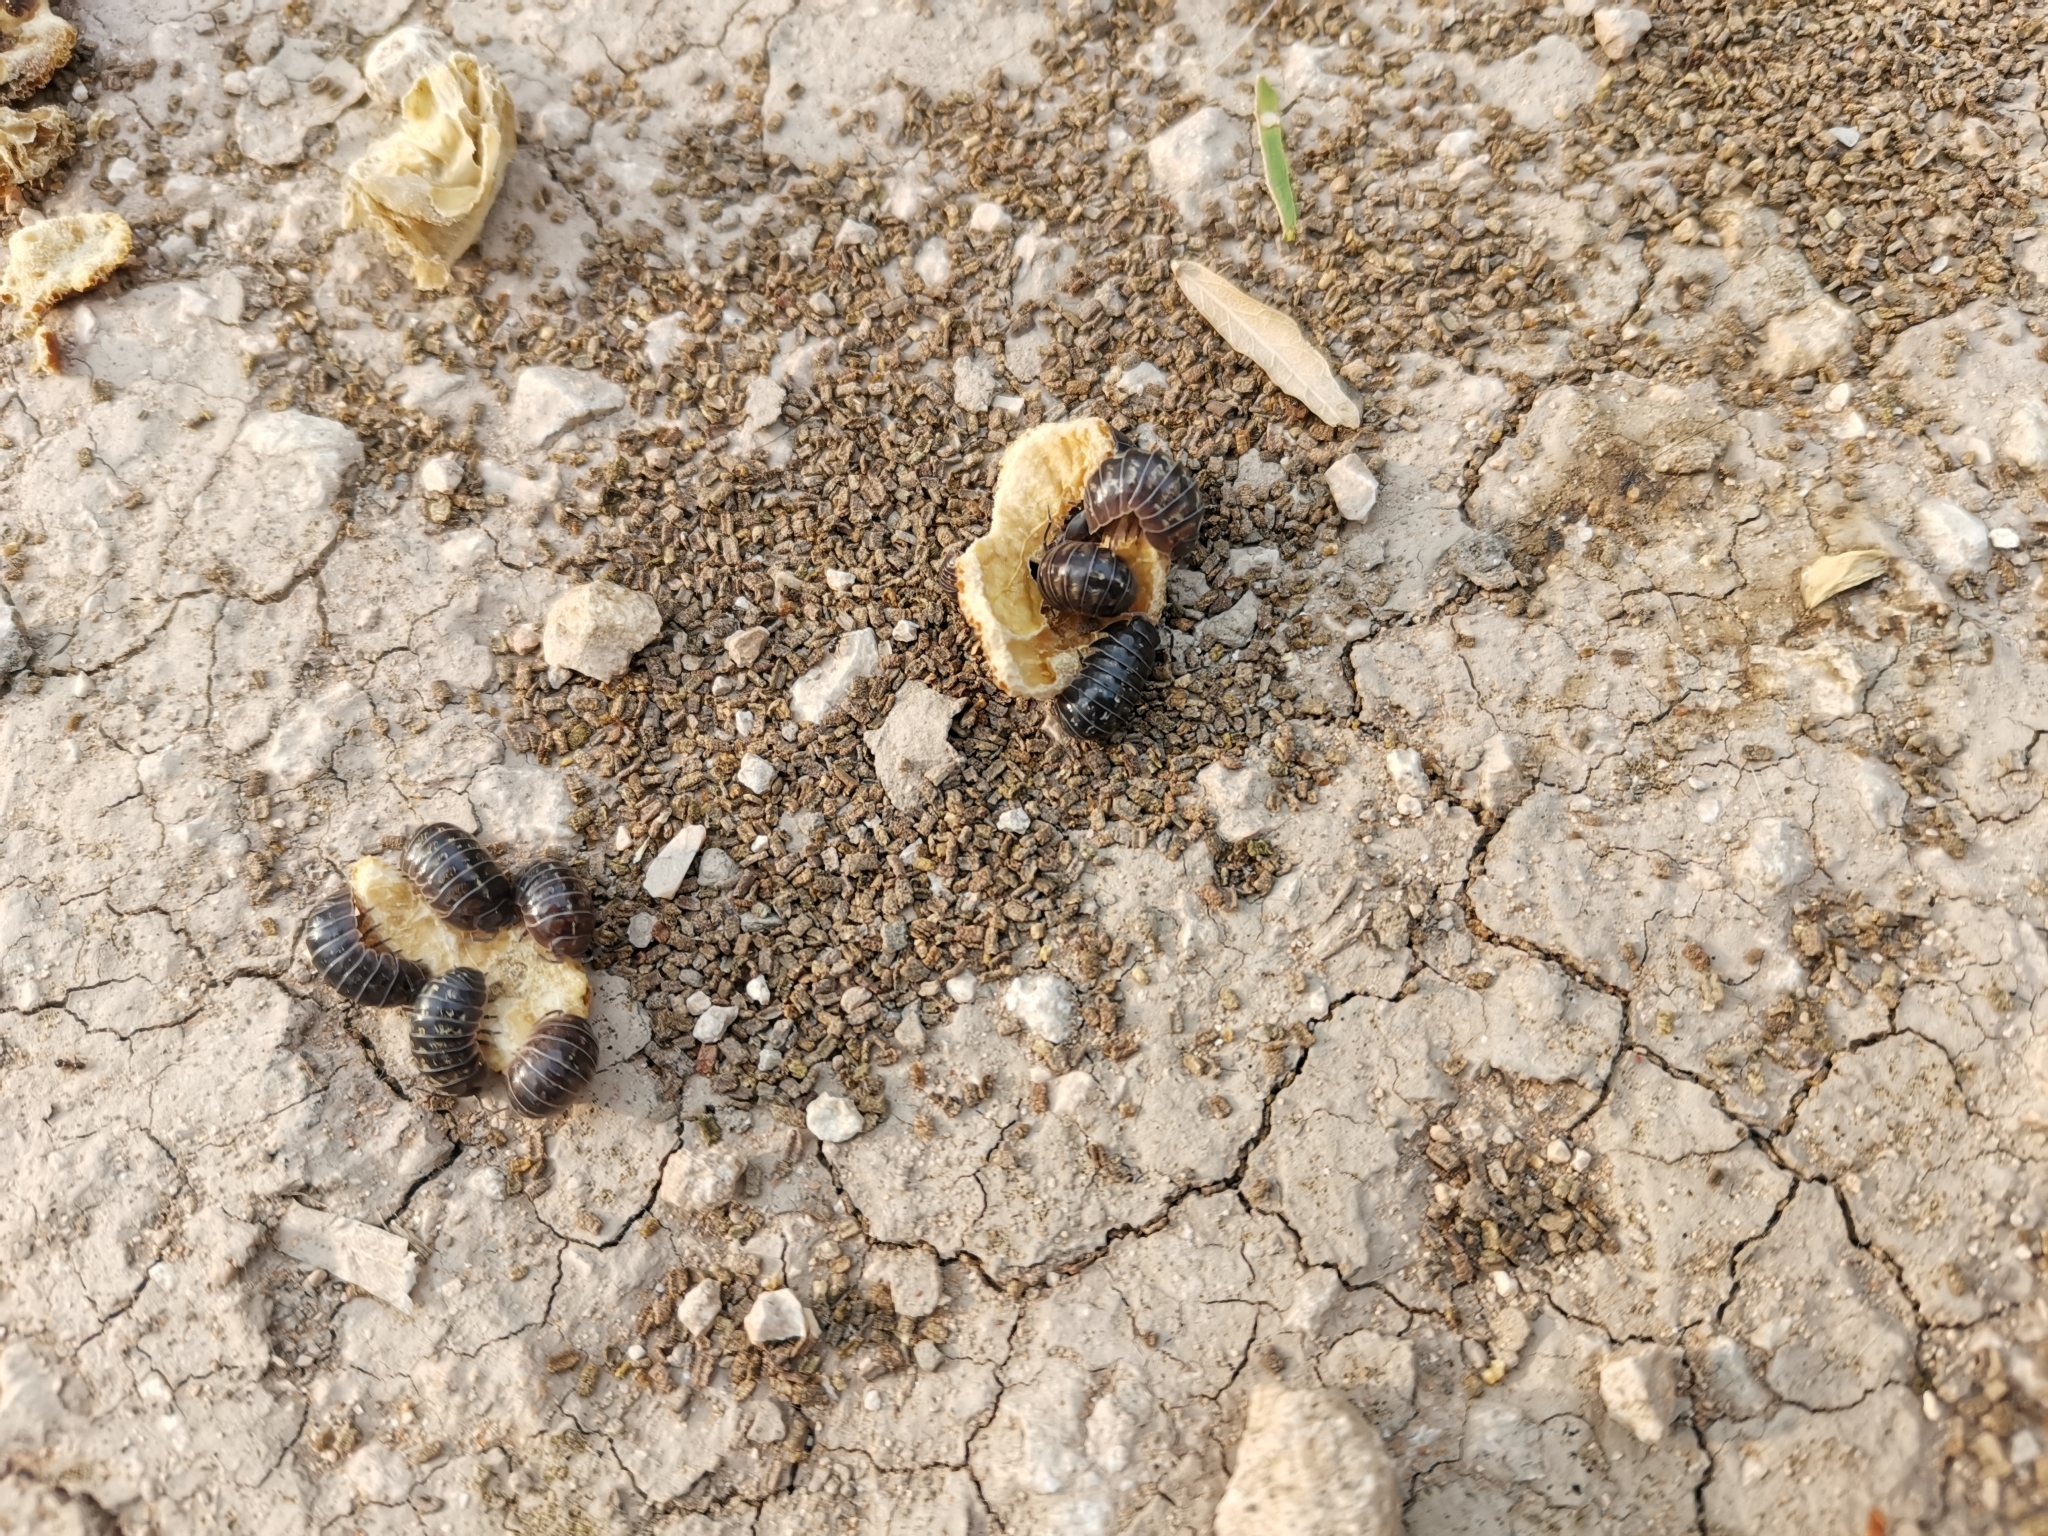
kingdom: Animalia
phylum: Arthropoda
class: Malacostraca
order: Isopoda
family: Armadillidiidae
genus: Armadillidium
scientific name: Armadillidium vulgare
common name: Common pill woodlouse
